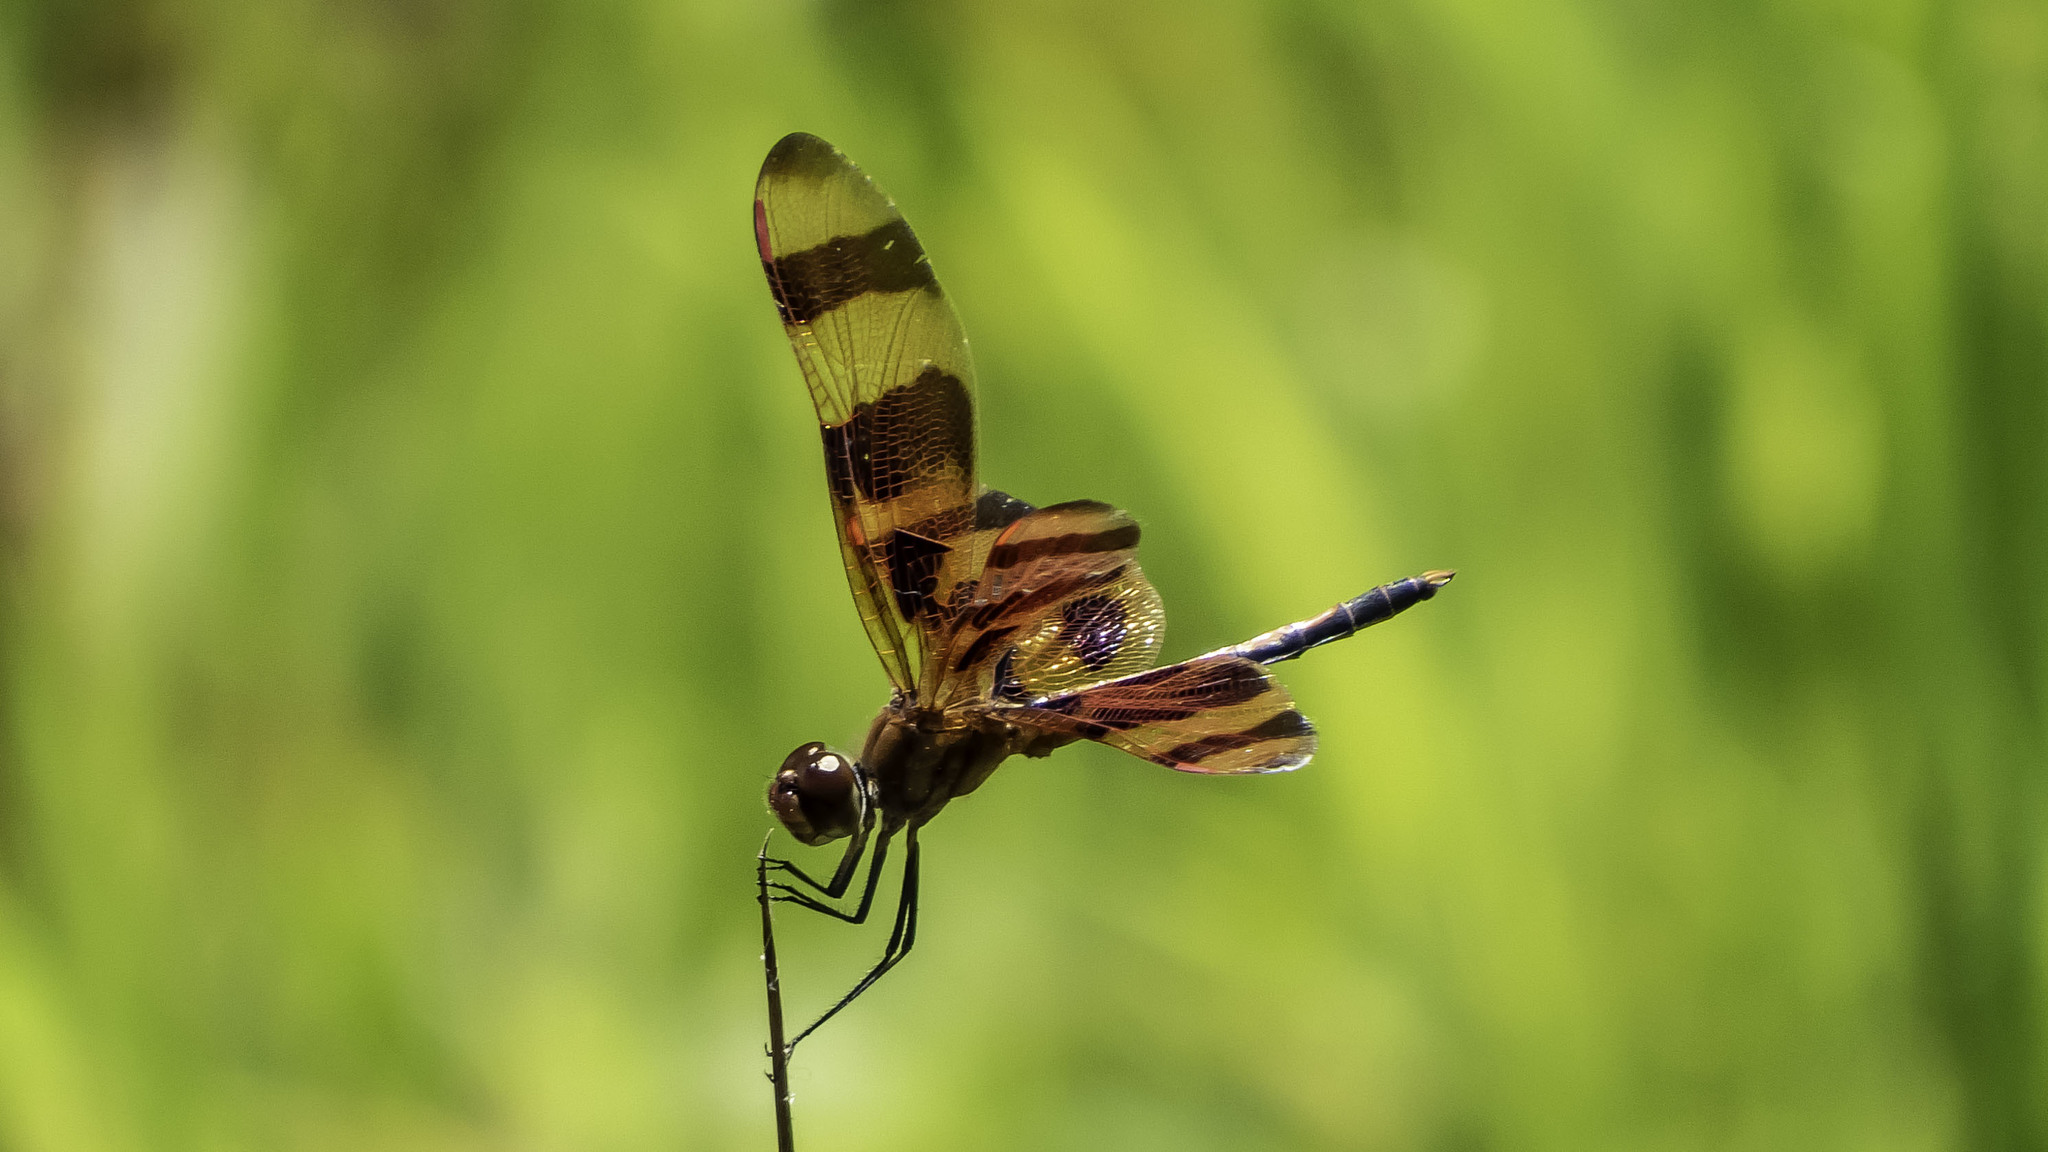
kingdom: Animalia
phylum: Arthropoda
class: Insecta
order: Odonata
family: Libellulidae
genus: Celithemis
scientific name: Celithemis eponina
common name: Halloween pennant
